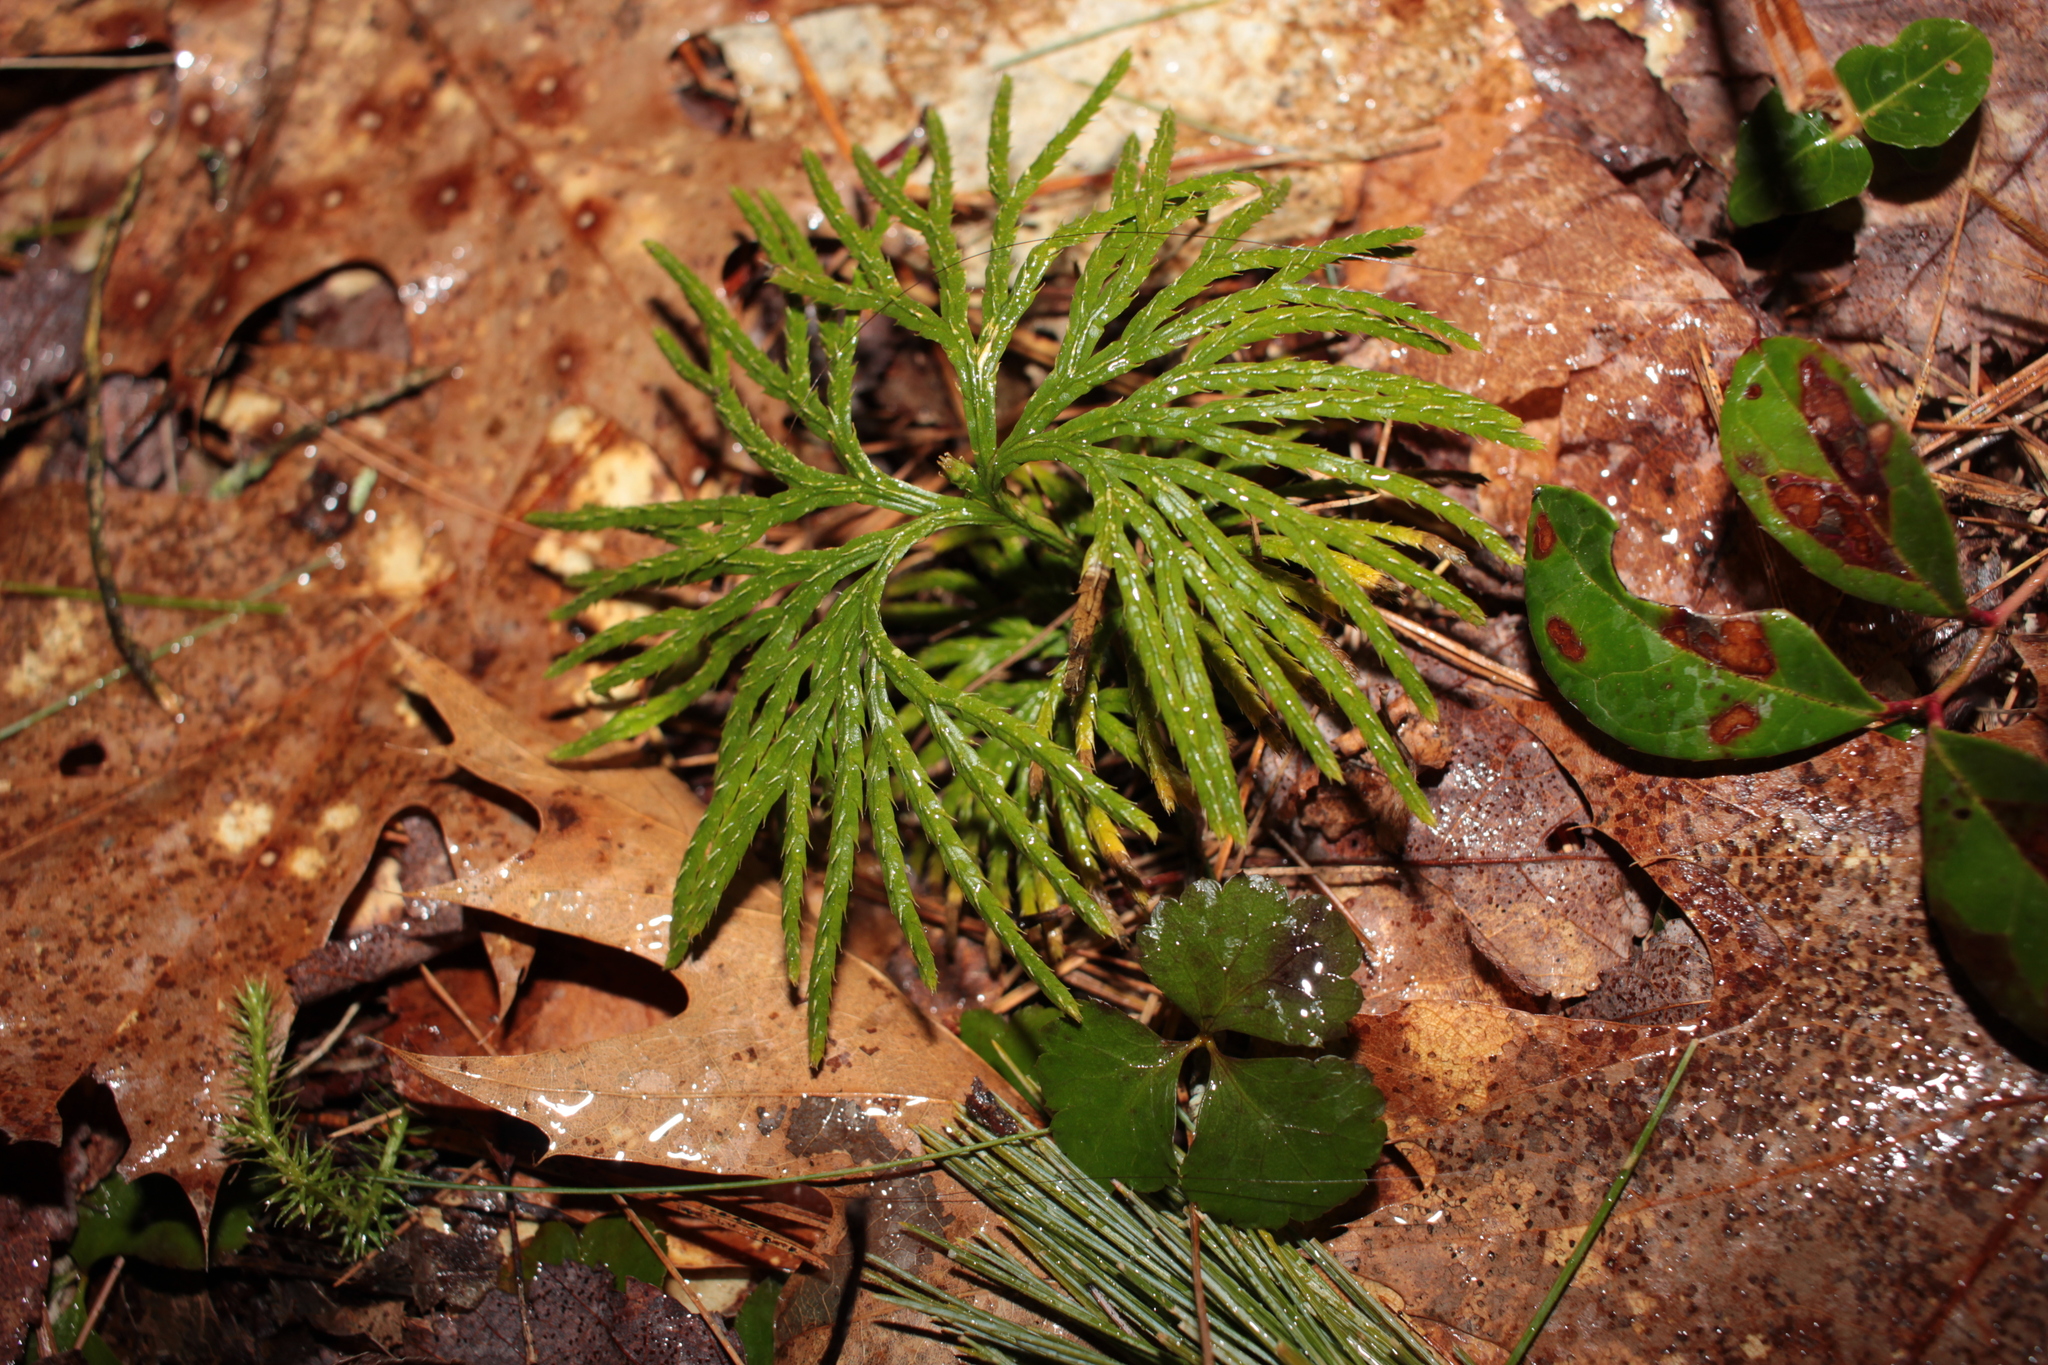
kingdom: Plantae
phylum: Tracheophyta
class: Lycopodiopsida
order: Lycopodiales
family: Lycopodiaceae
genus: Diphasiastrum
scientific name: Diphasiastrum digitatum
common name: Southern running-pine
